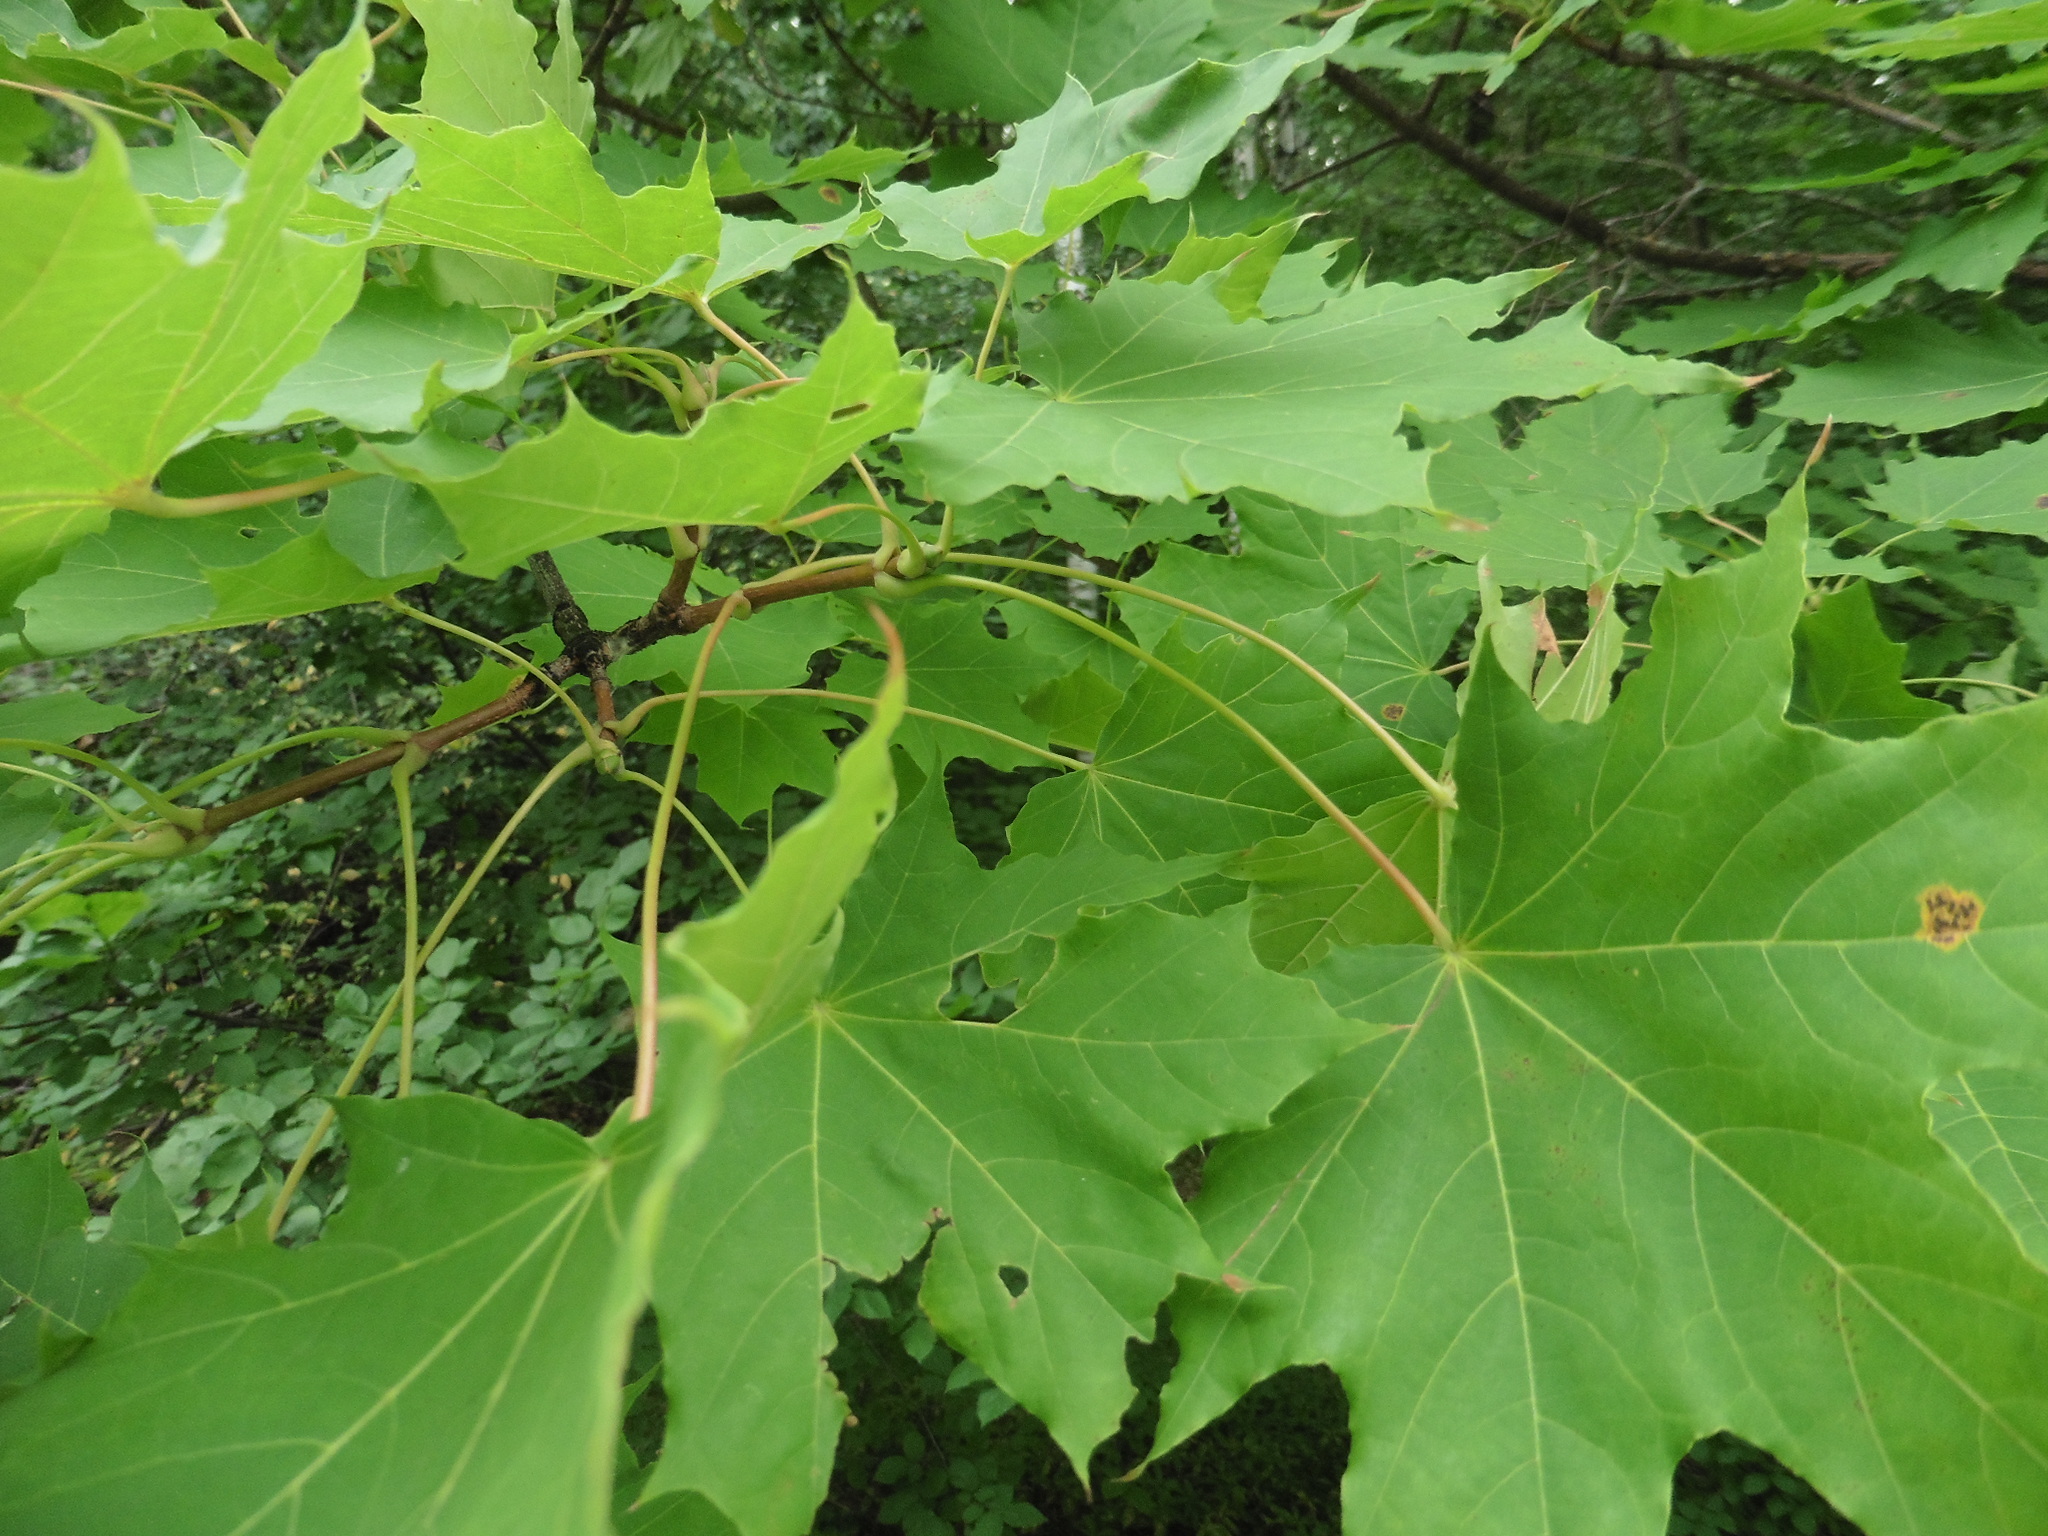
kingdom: Plantae
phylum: Tracheophyta
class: Magnoliopsida
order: Sapindales
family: Sapindaceae
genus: Acer
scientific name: Acer platanoides
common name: Norway maple
